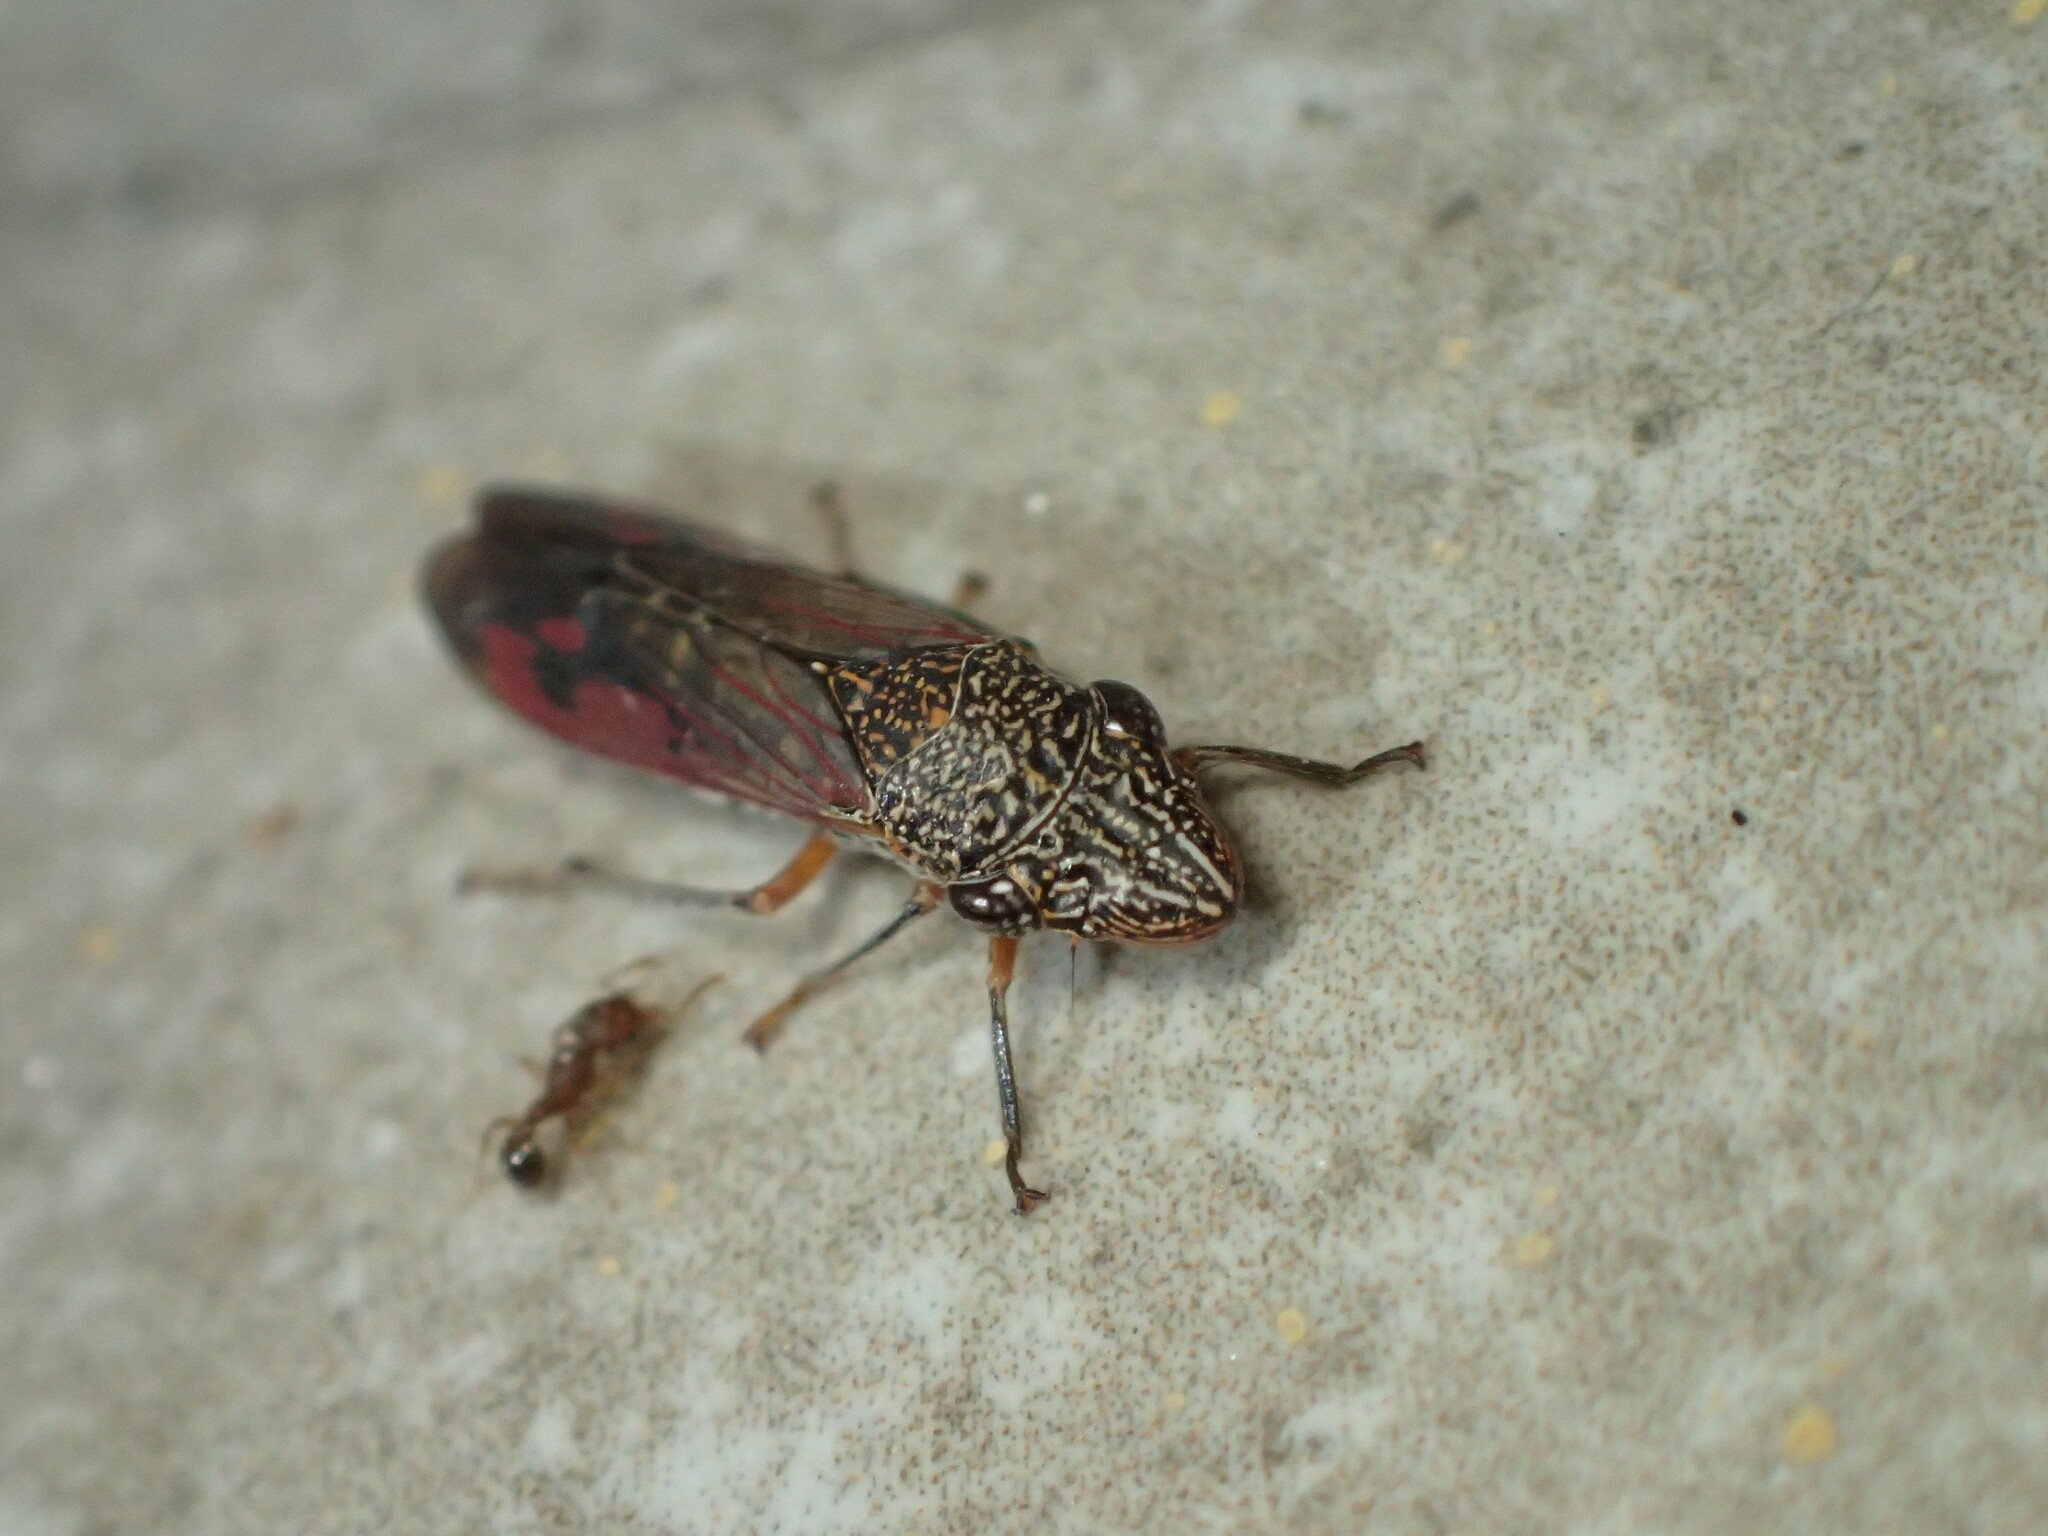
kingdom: Animalia
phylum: Arthropoda
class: Insecta
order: Hemiptera
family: Cicadellidae
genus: Homalodisca
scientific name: Homalodisca liturata
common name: Lacertate sharpshooter
